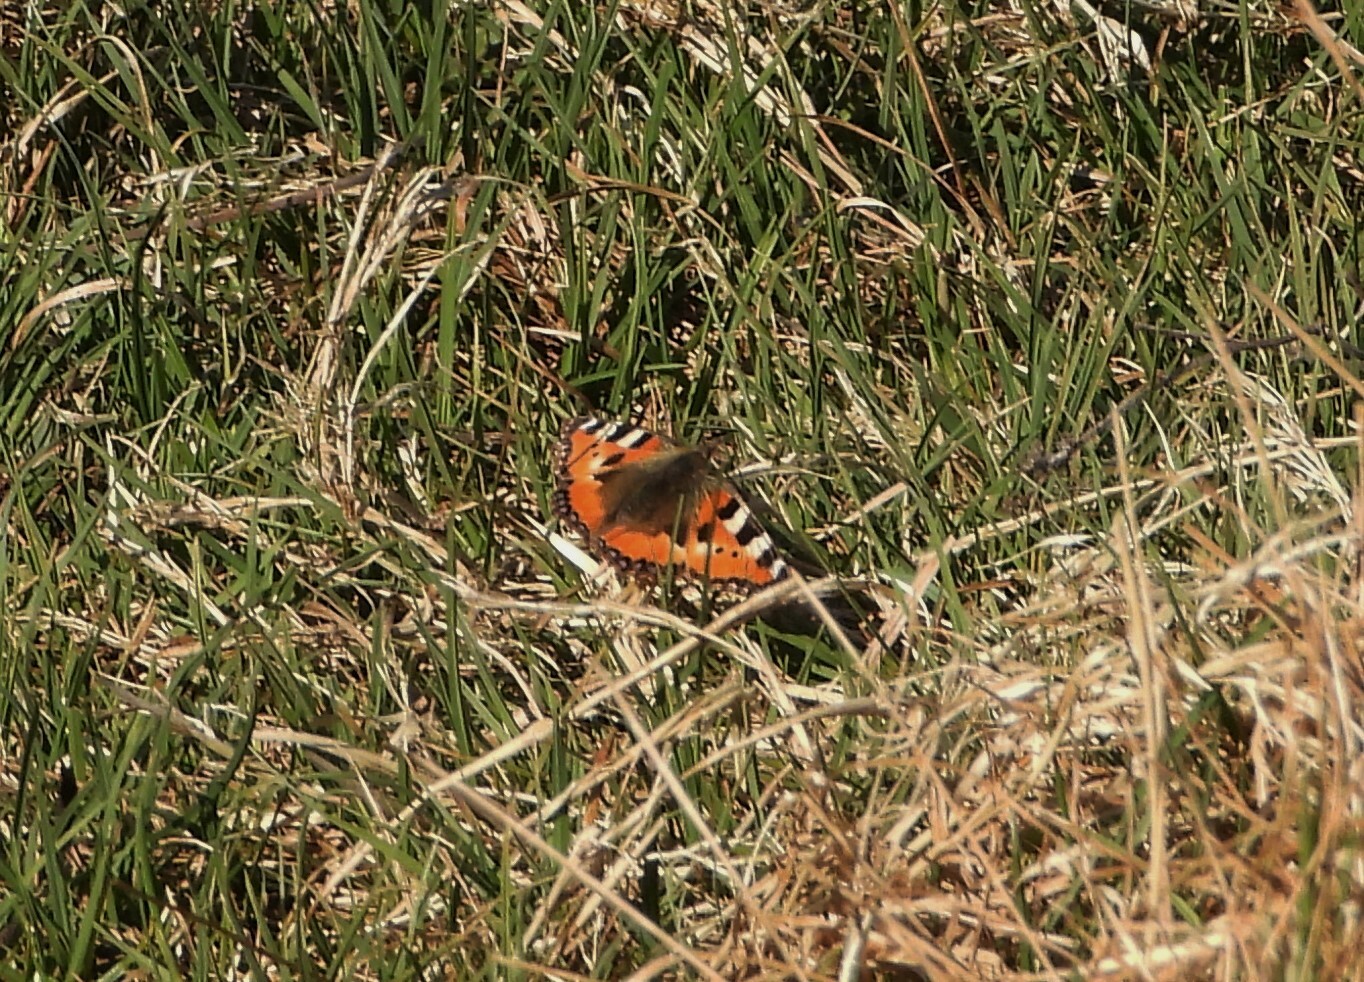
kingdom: Animalia
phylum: Arthropoda
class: Insecta
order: Lepidoptera
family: Nymphalidae
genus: Aglais
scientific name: Aglais urticae
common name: Small tortoiseshell
